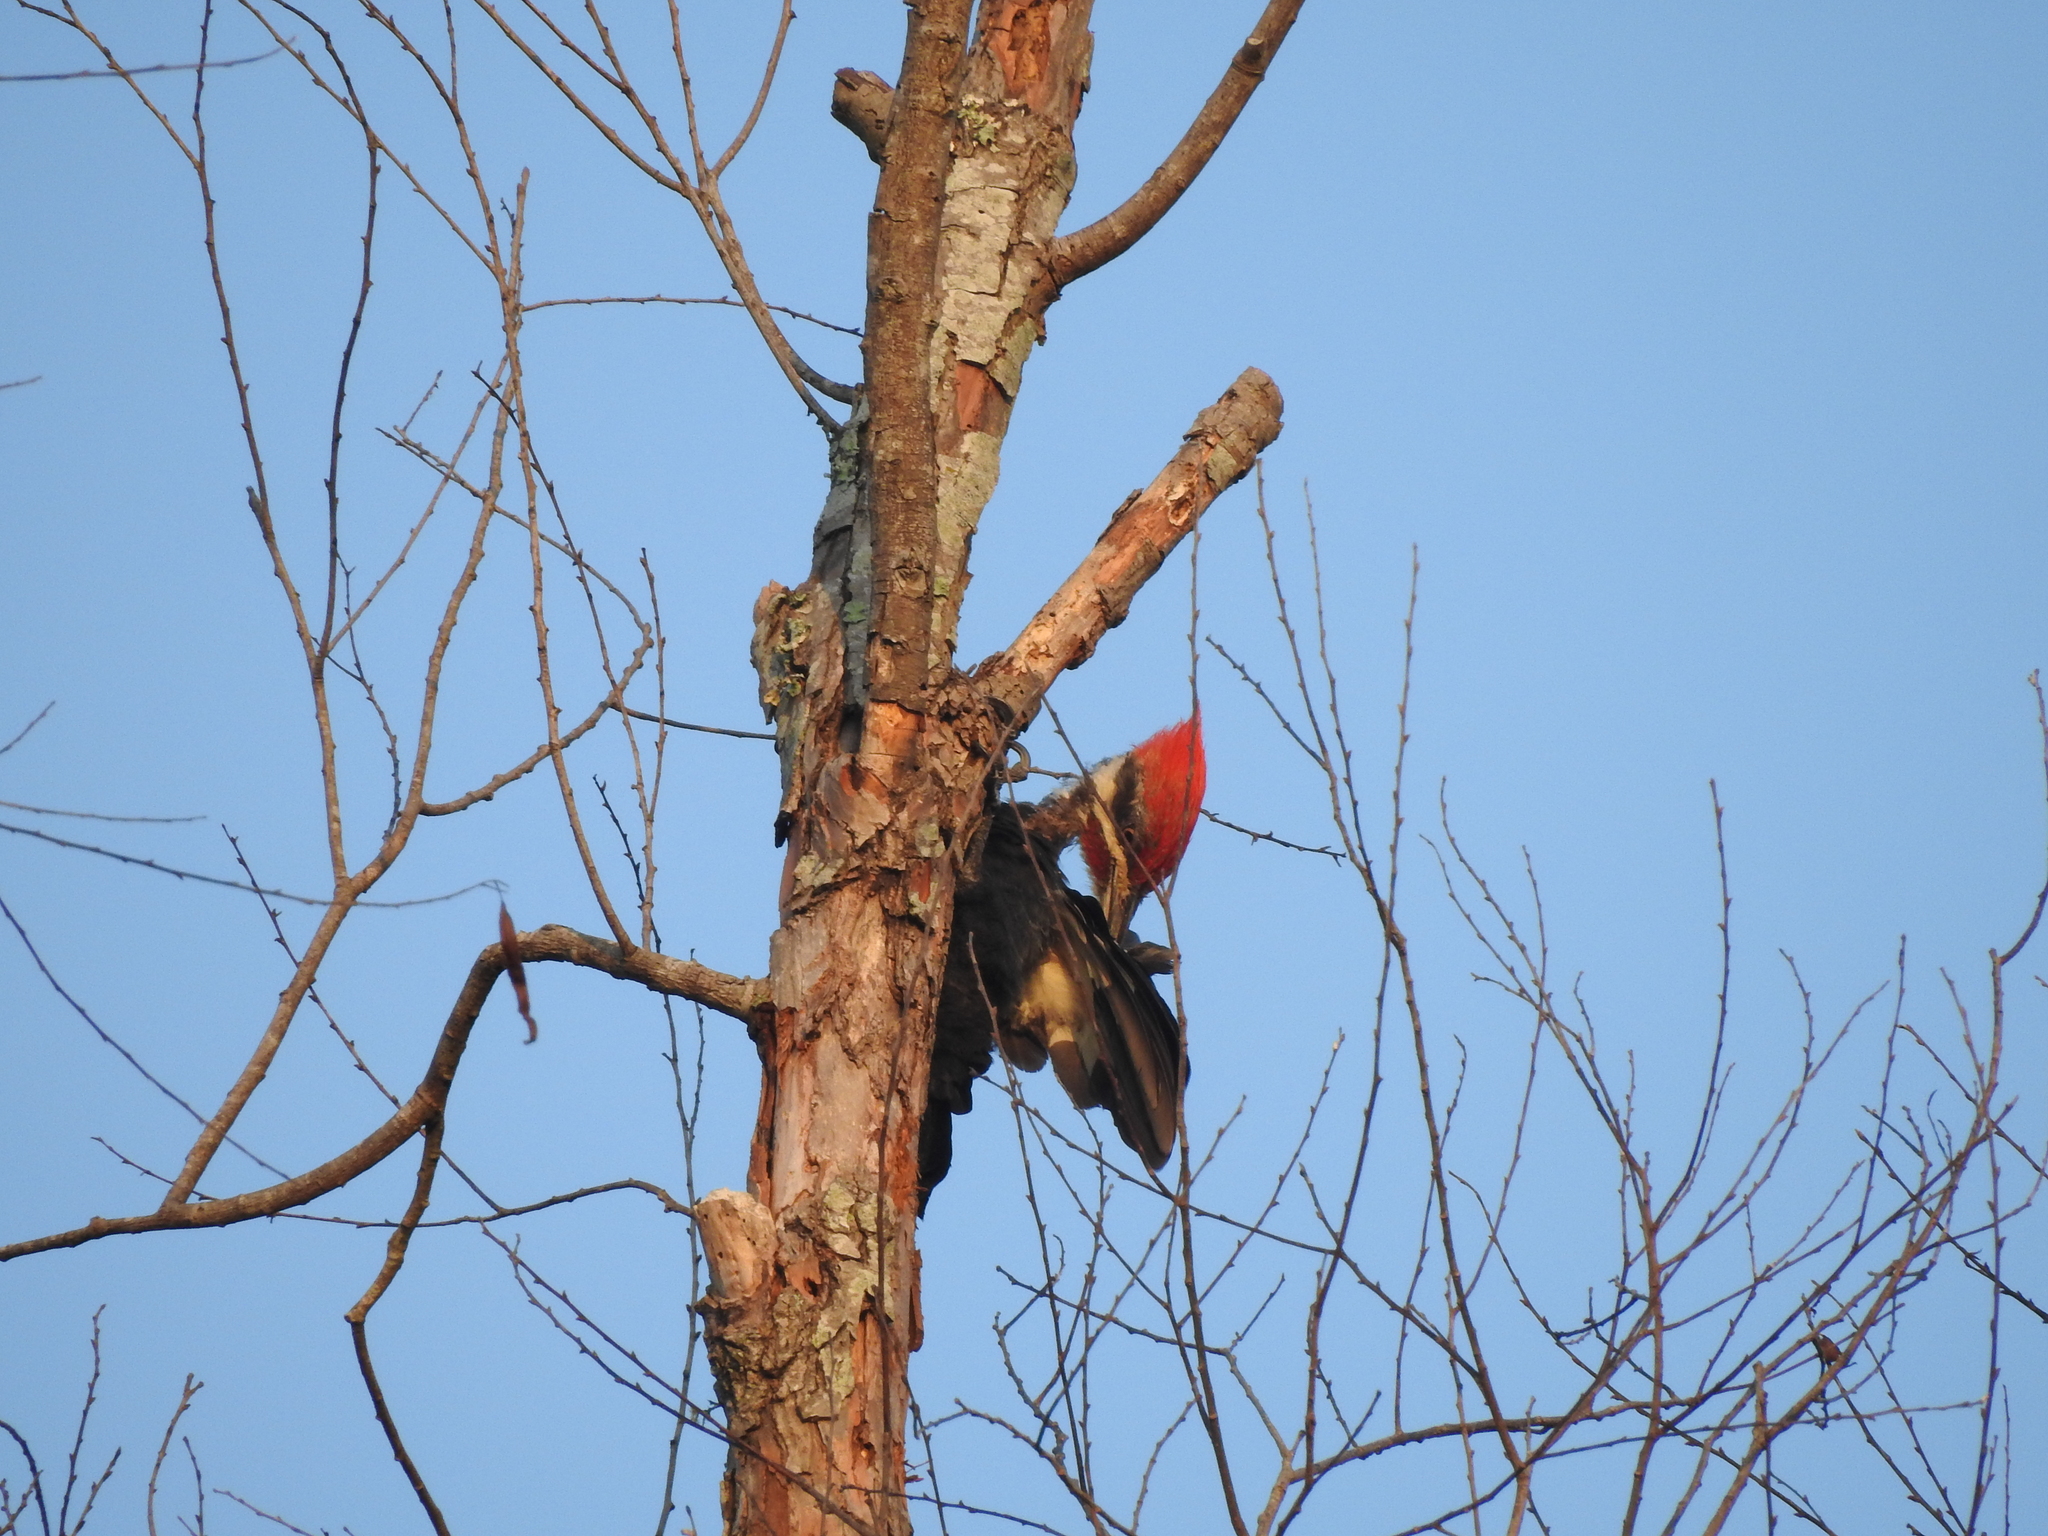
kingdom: Animalia
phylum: Chordata
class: Aves
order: Piciformes
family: Picidae
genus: Dryocopus
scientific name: Dryocopus pileatus
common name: Pileated woodpecker
